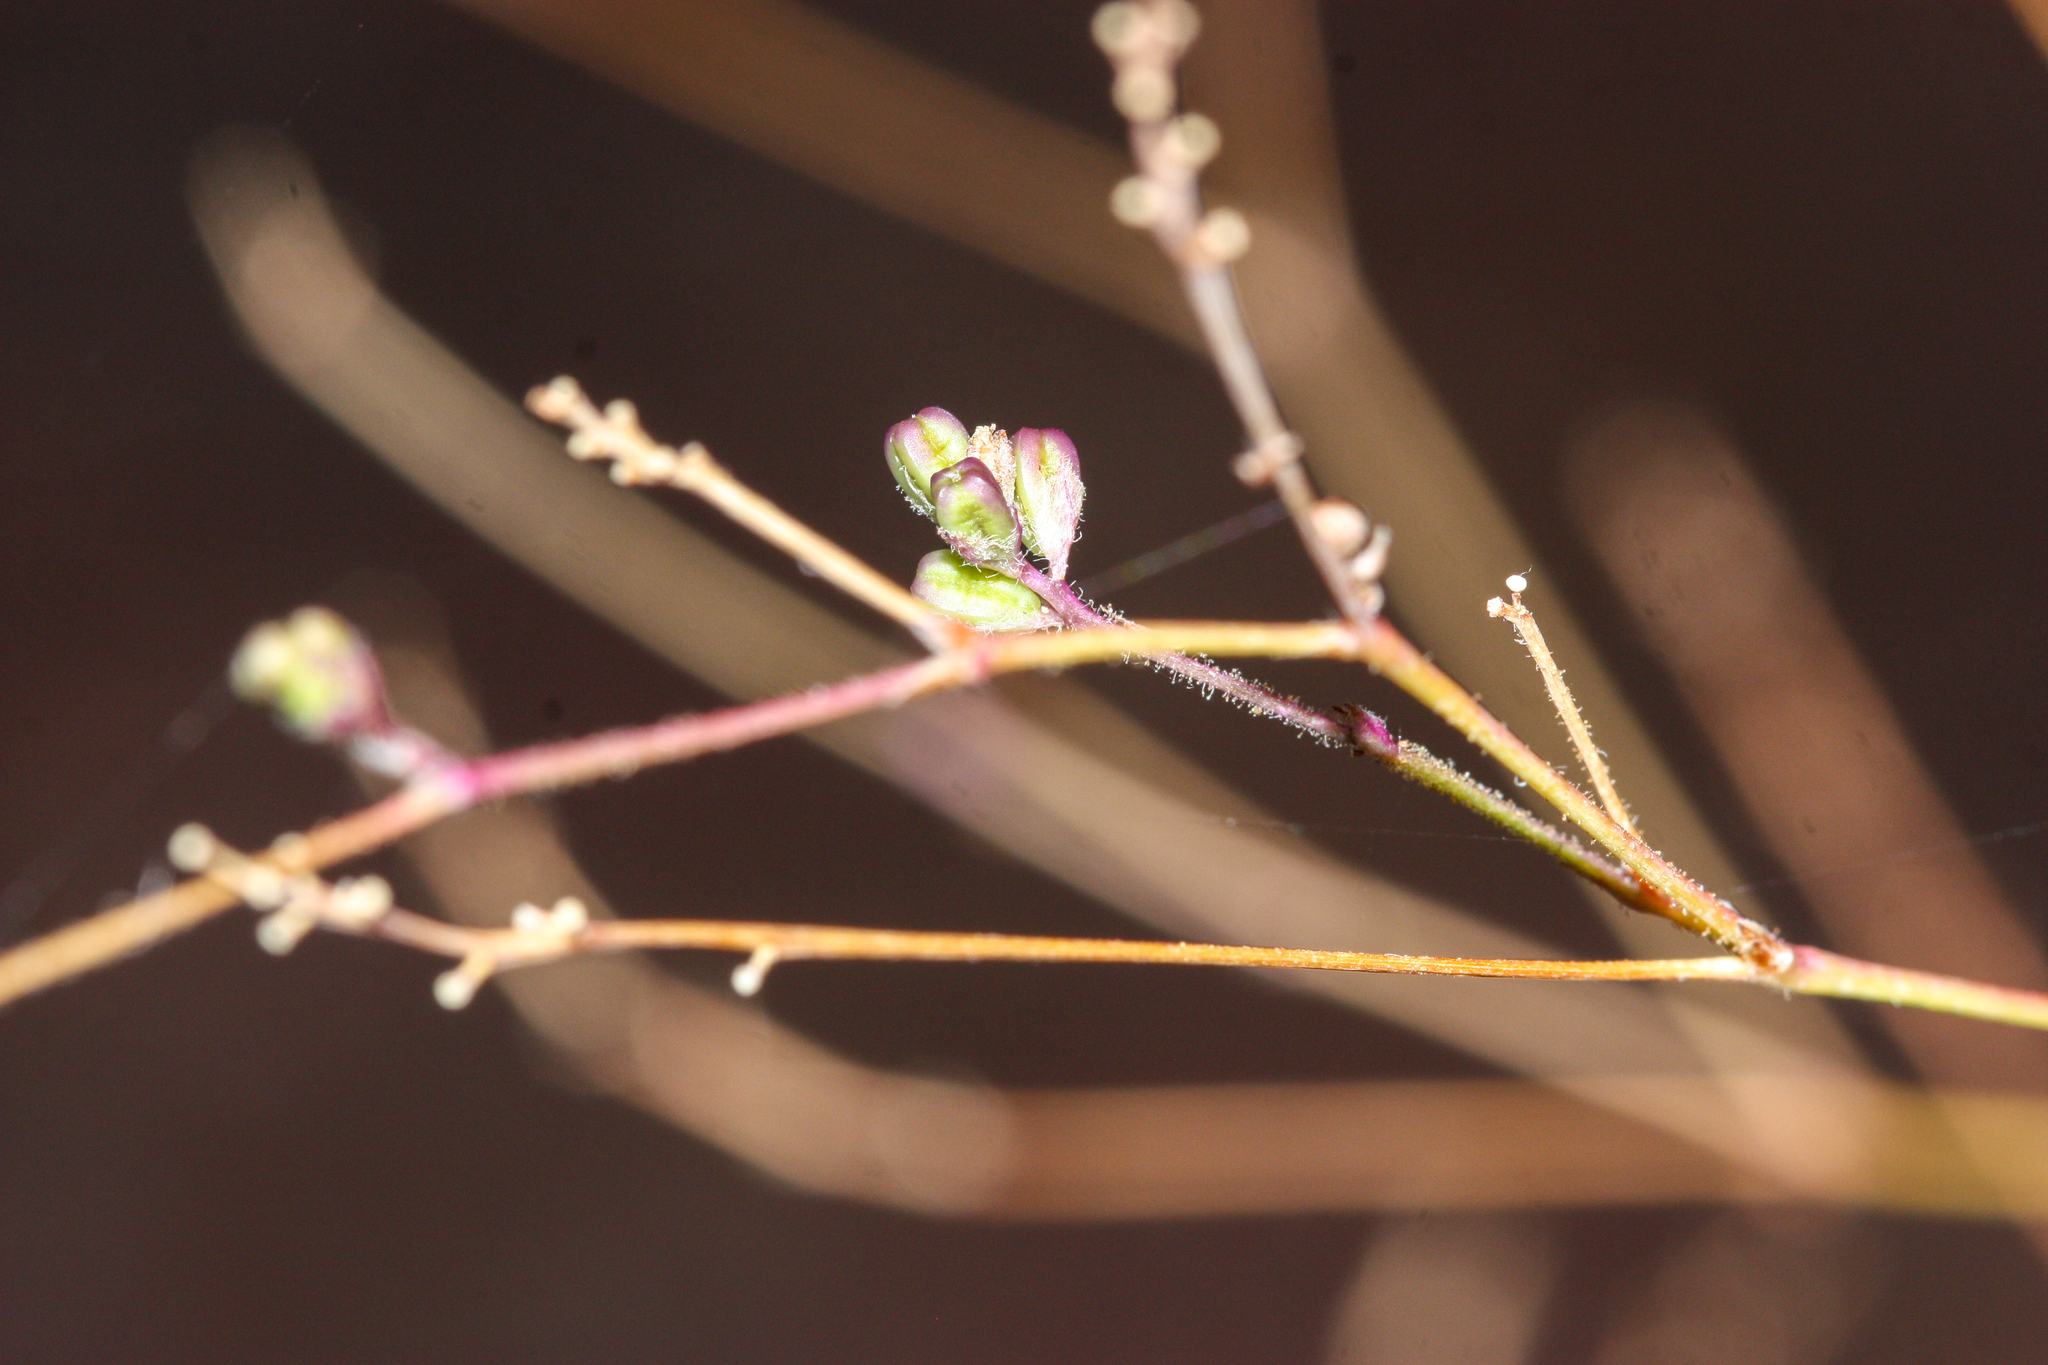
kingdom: Plantae
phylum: Tracheophyta
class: Magnoliopsida
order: Caryophyllales
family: Nyctaginaceae
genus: Boerhavia
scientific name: Boerhavia
